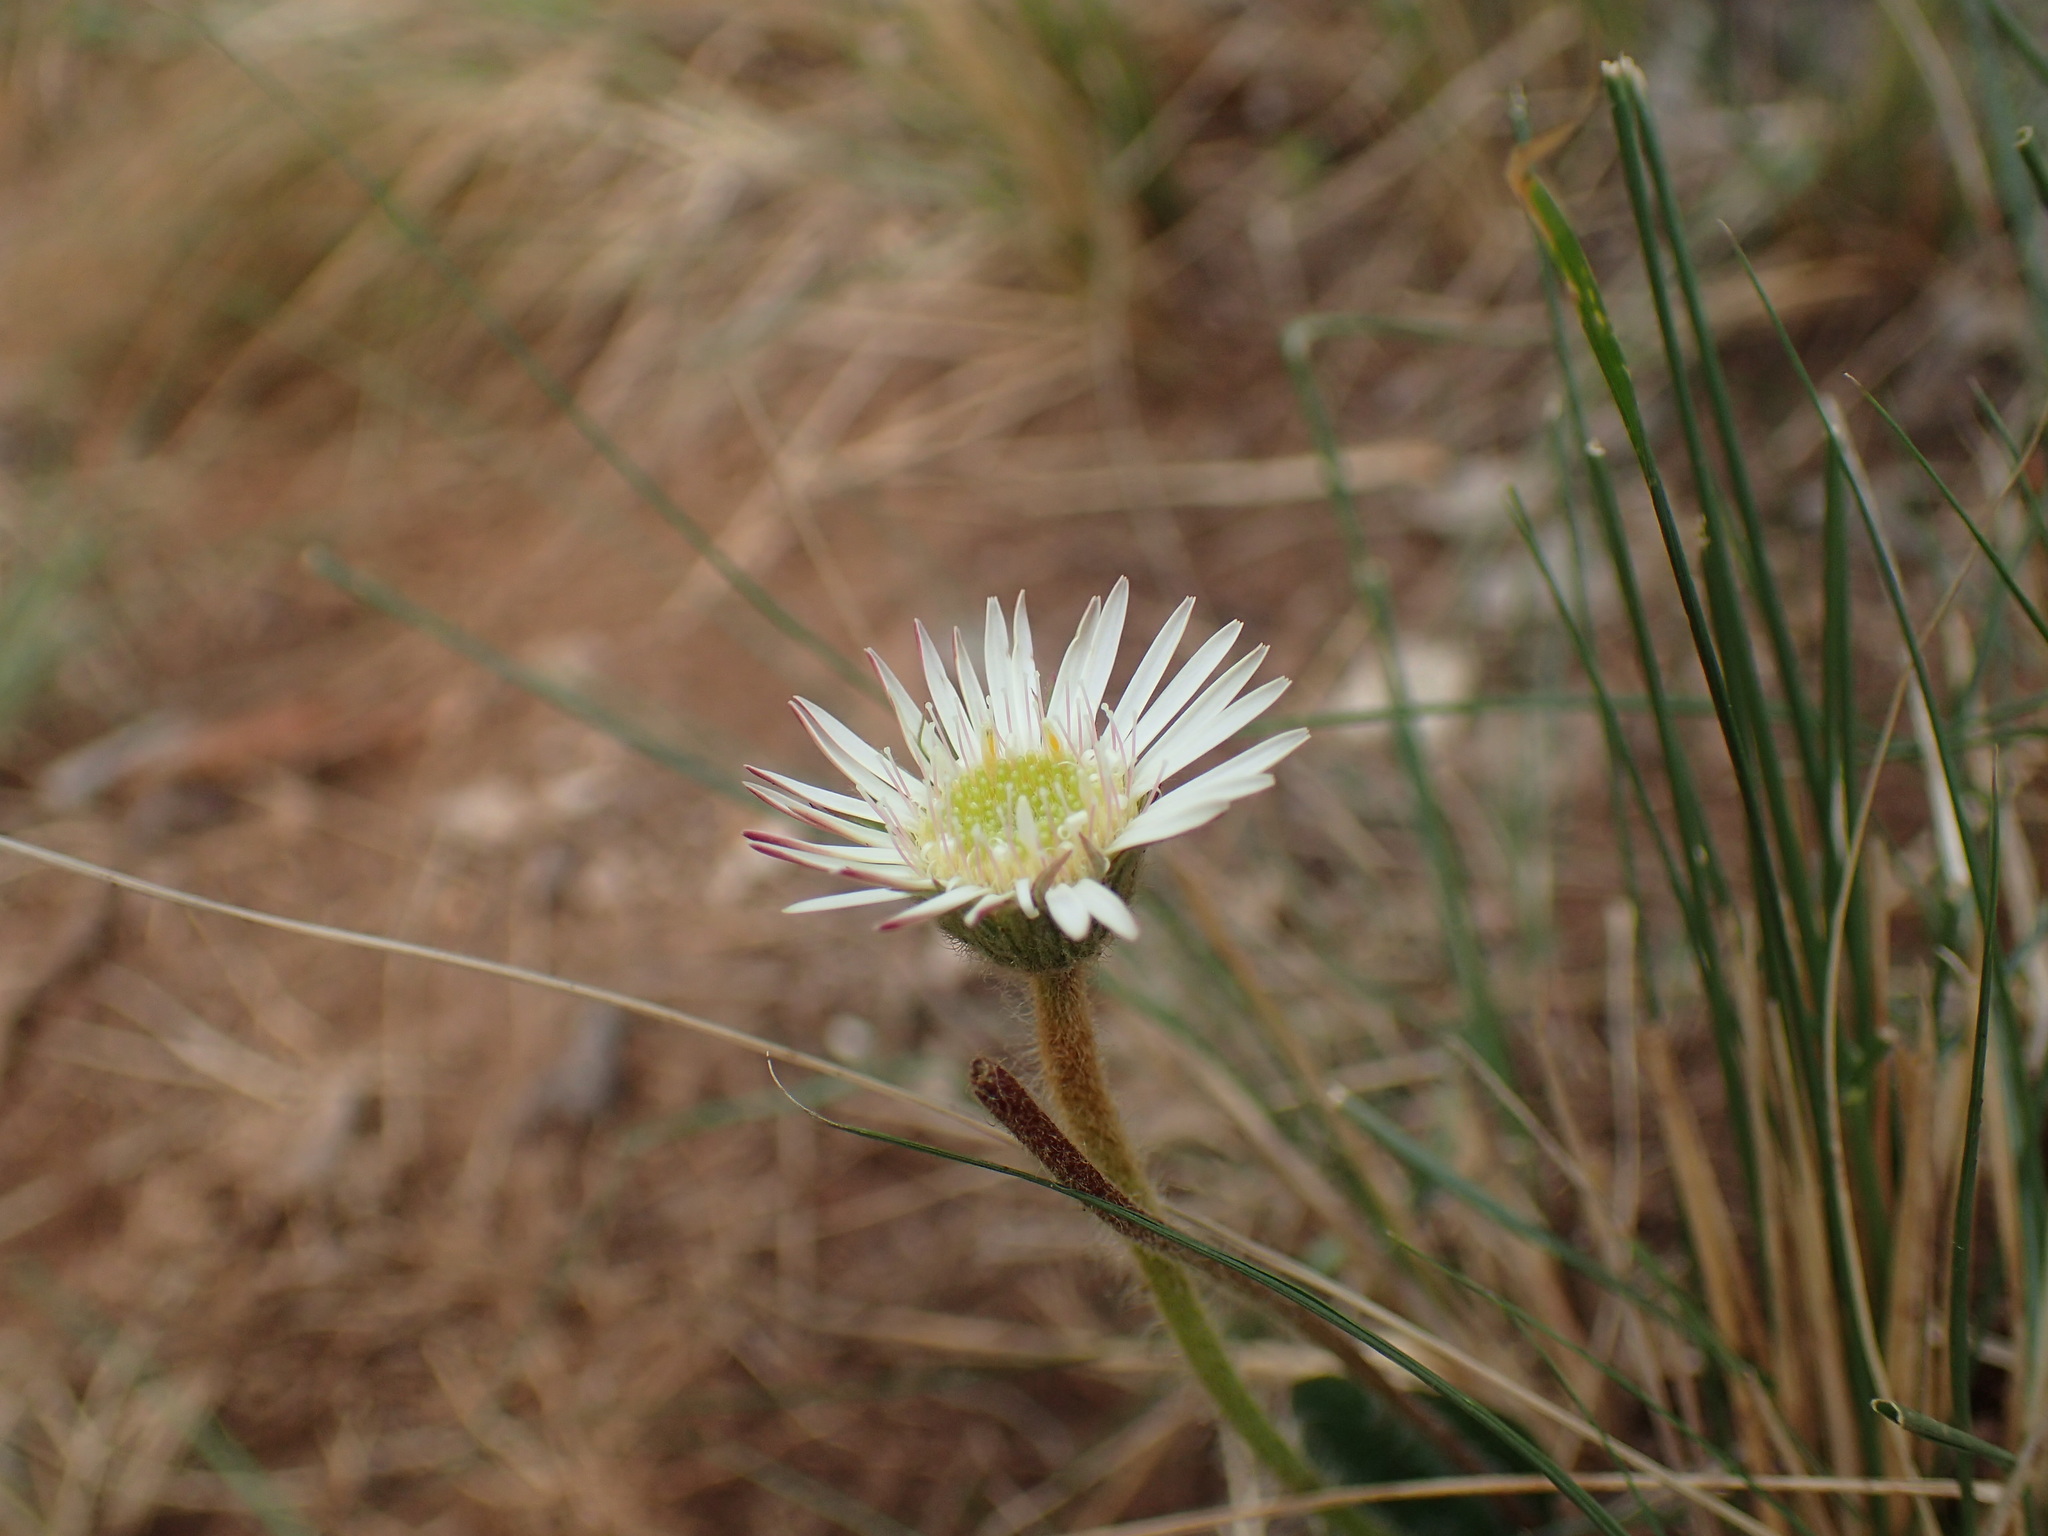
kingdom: Plantae
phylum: Tracheophyta
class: Magnoliopsida
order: Asterales
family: Asteraceae
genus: Gerbera
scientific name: Gerbera natalensis
